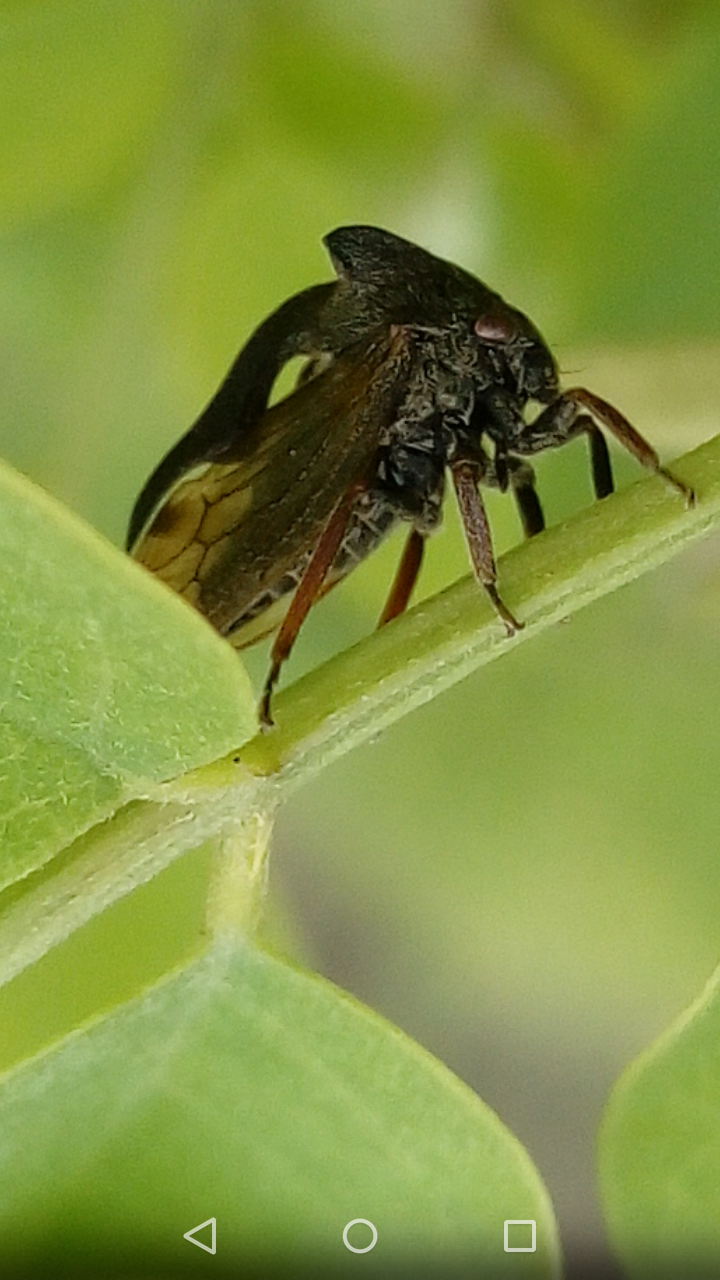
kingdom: Animalia
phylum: Arthropoda
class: Insecta
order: Hemiptera
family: Membracidae
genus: Centrotus
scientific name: Centrotus cornuta
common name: Treehopper
